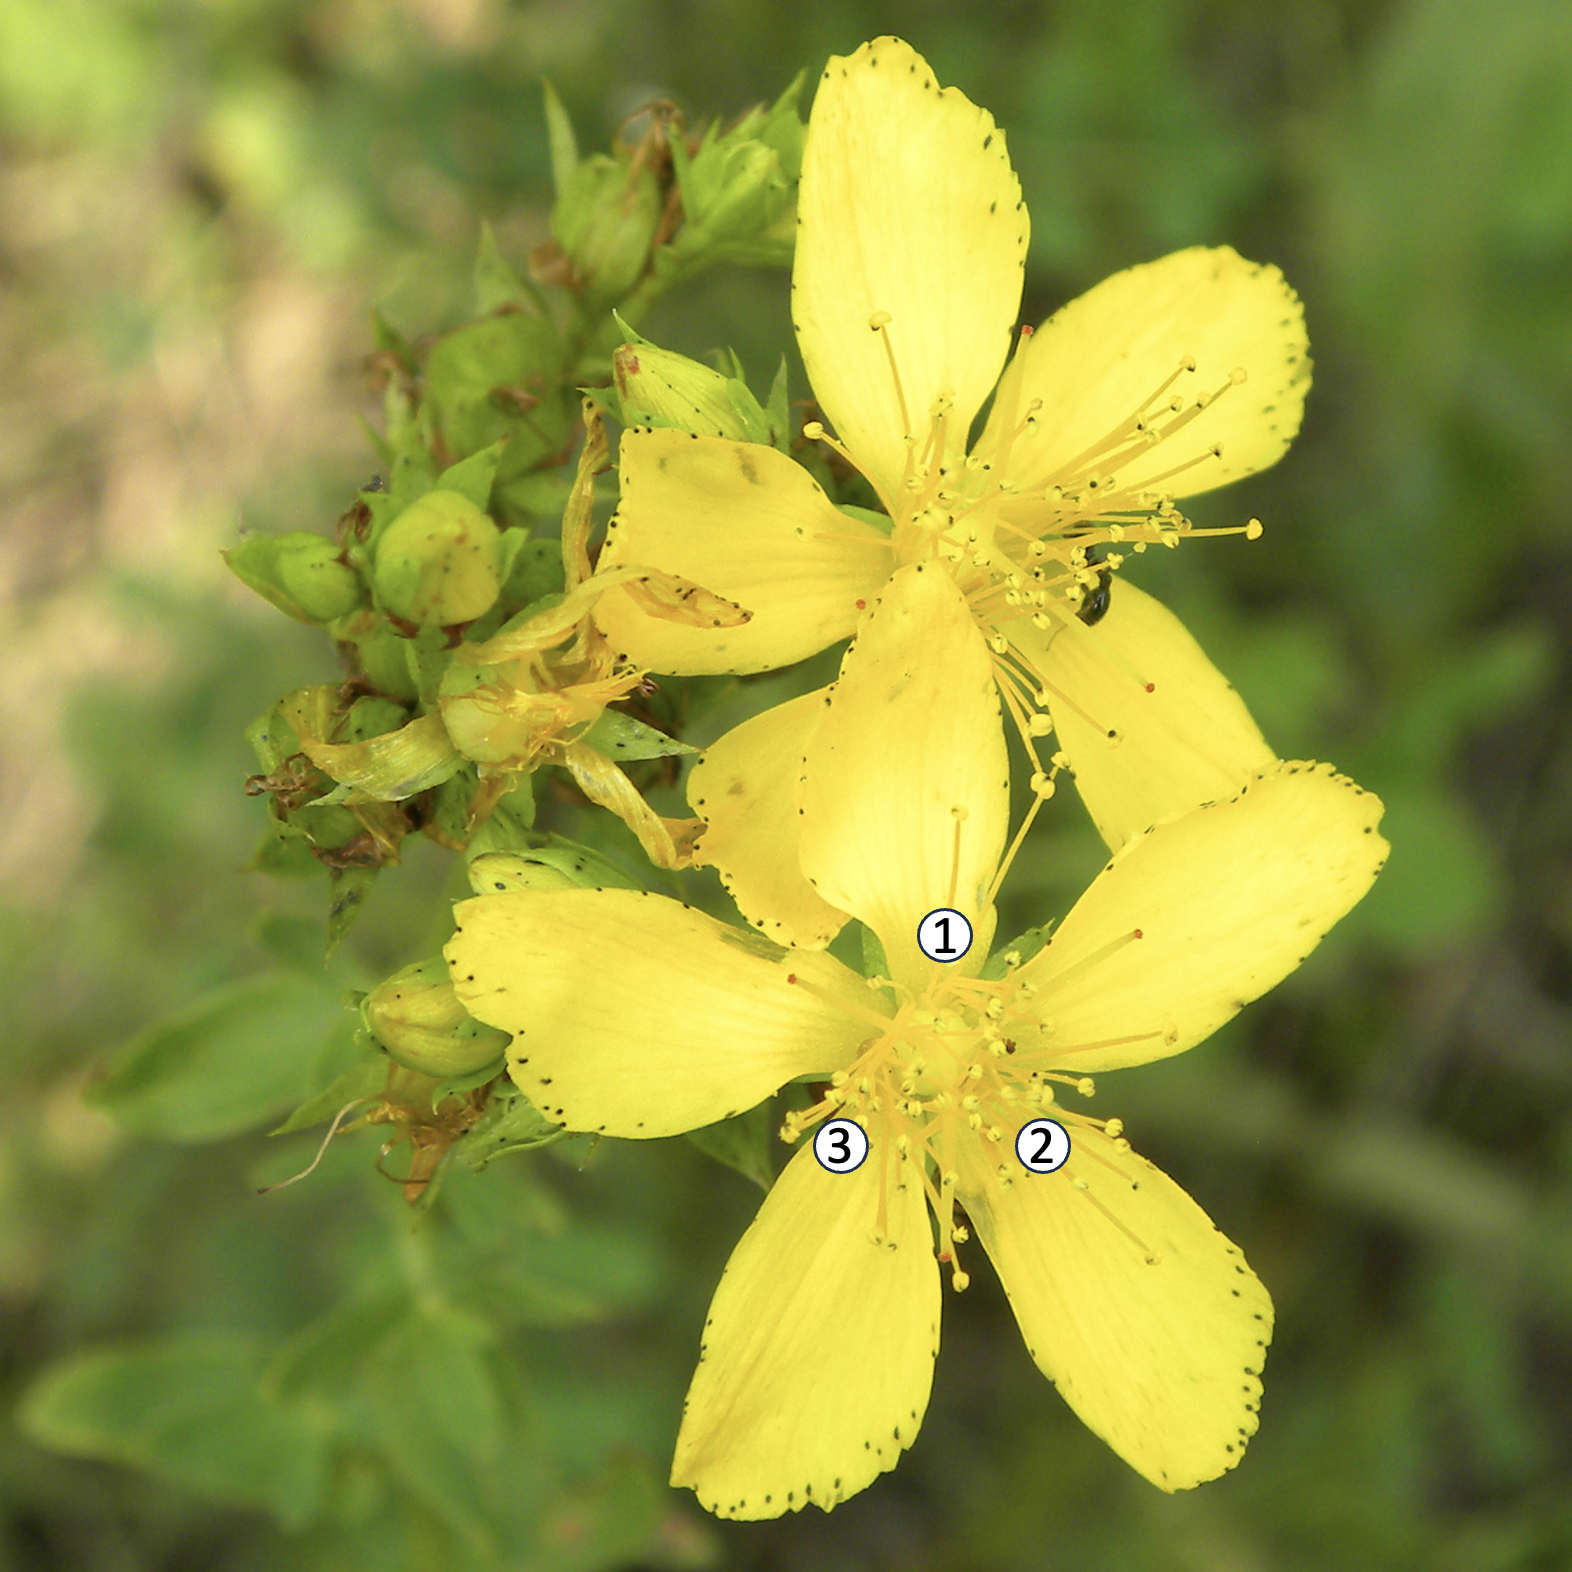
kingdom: Plantae
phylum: Tracheophyta
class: Magnoliopsida
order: Malpighiales
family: Hypericaceae
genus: Hypericum
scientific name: Hypericum perforatum
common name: Common st. johnswort
